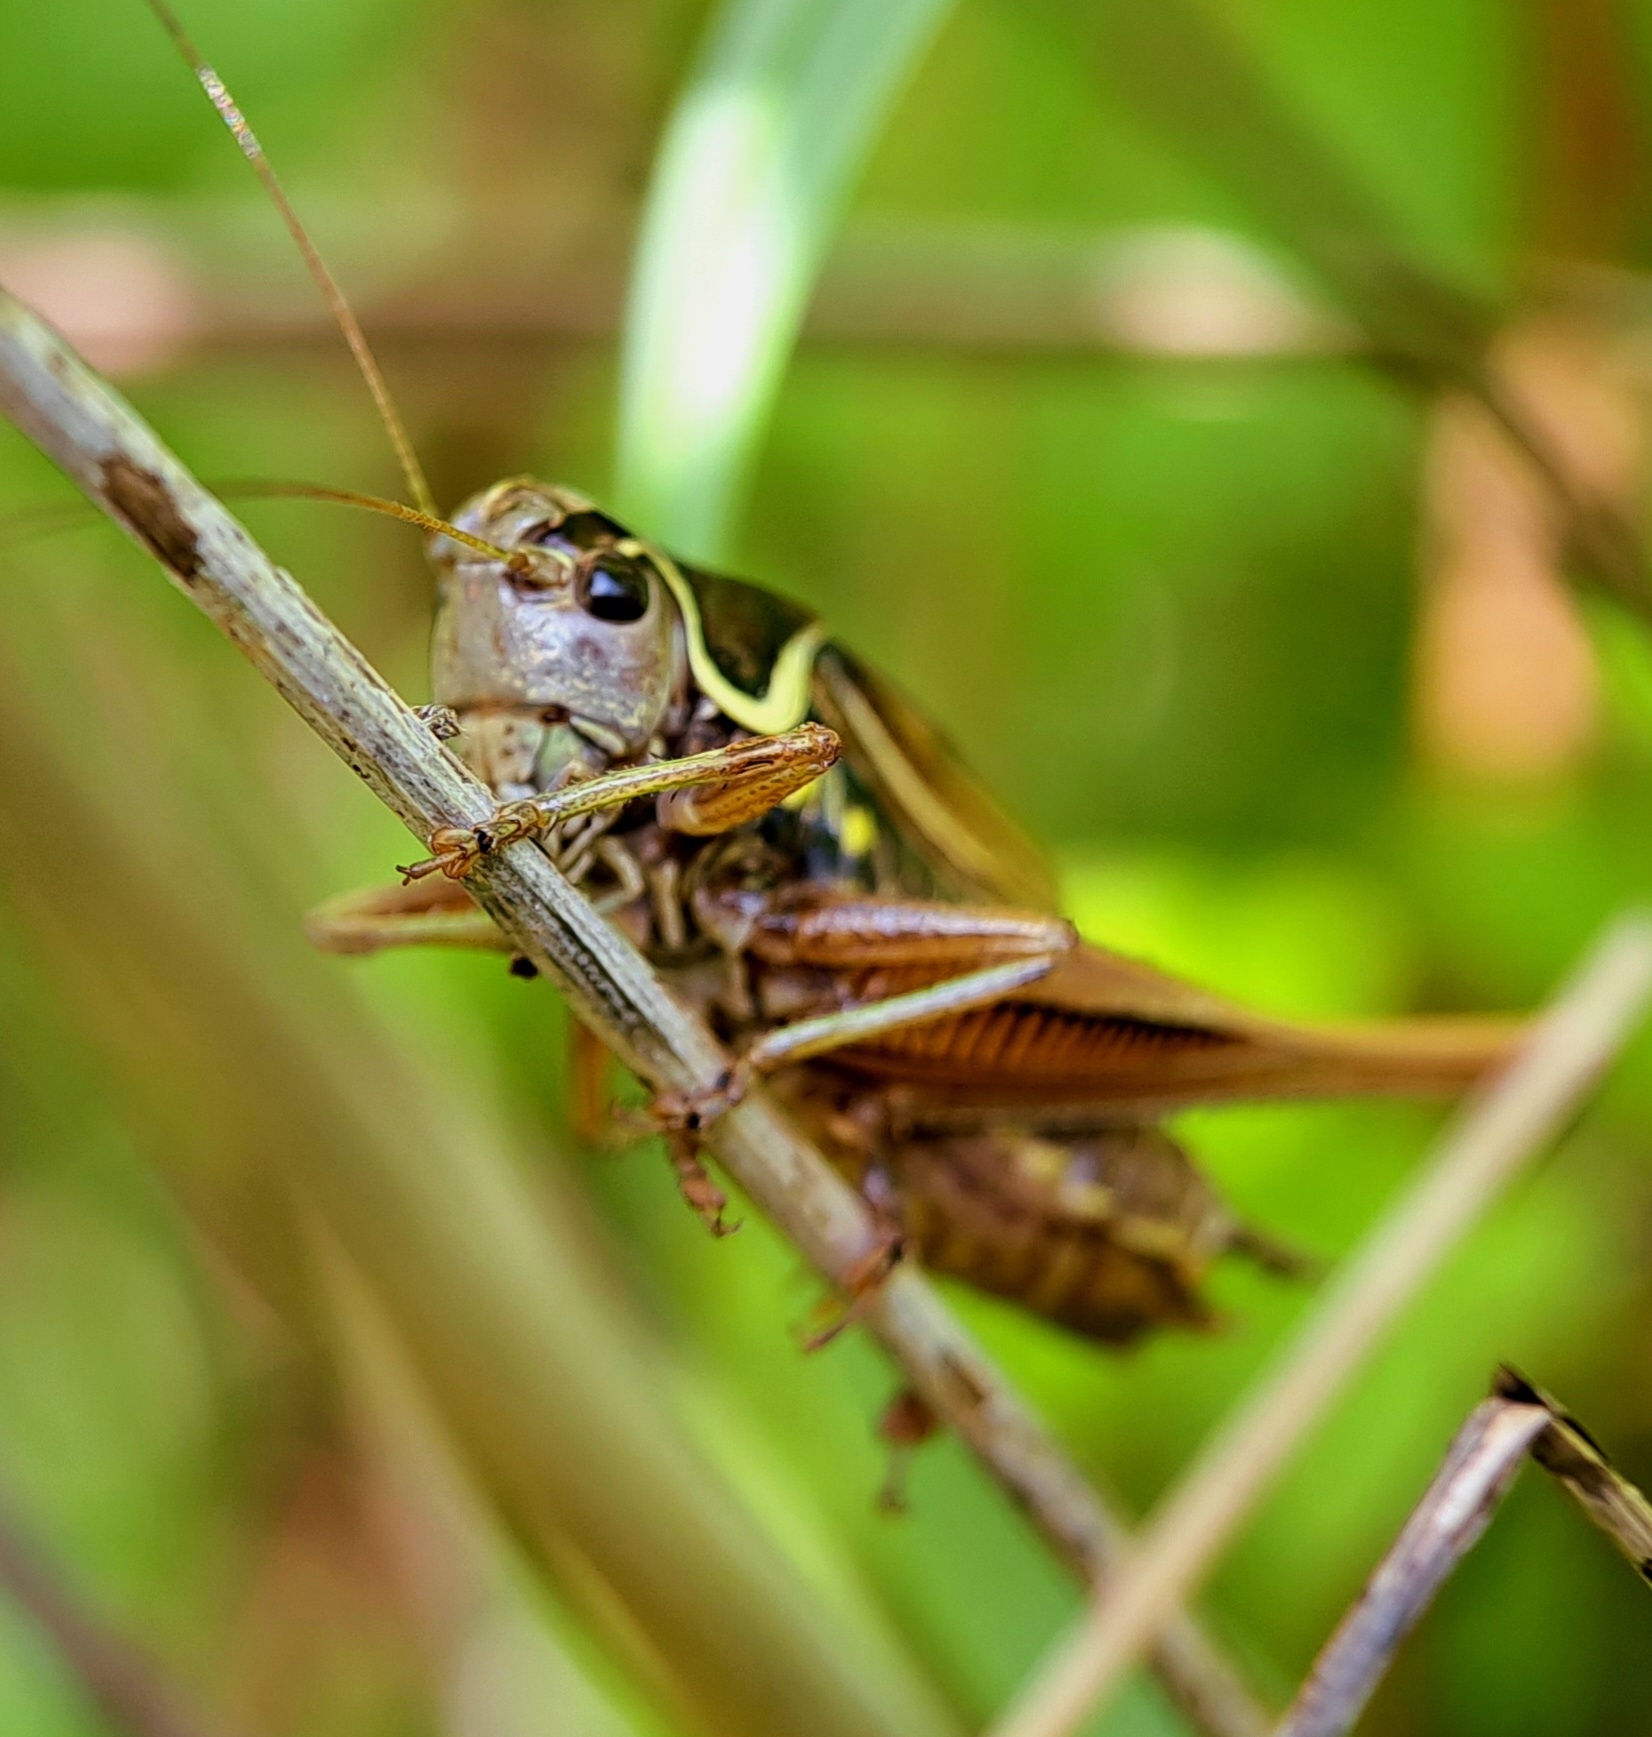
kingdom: Animalia
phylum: Arthropoda
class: Insecta
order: Orthoptera
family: Tettigoniidae
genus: Roeseliana
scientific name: Roeseliana roeselii
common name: Roesel's bush cricket
